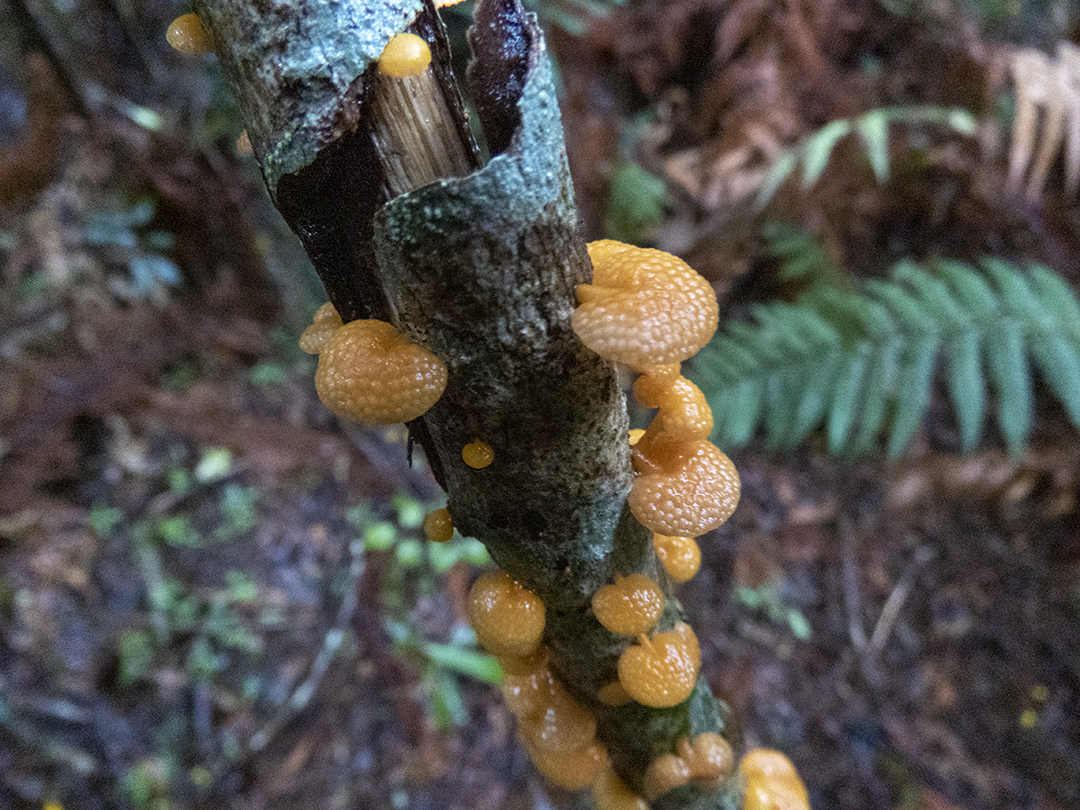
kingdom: Fungi
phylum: Basidiomycota
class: Agaricomycetes
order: Agaricales
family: Mycenaceae
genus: Favolaschia
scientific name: Favolaschia claudopus
